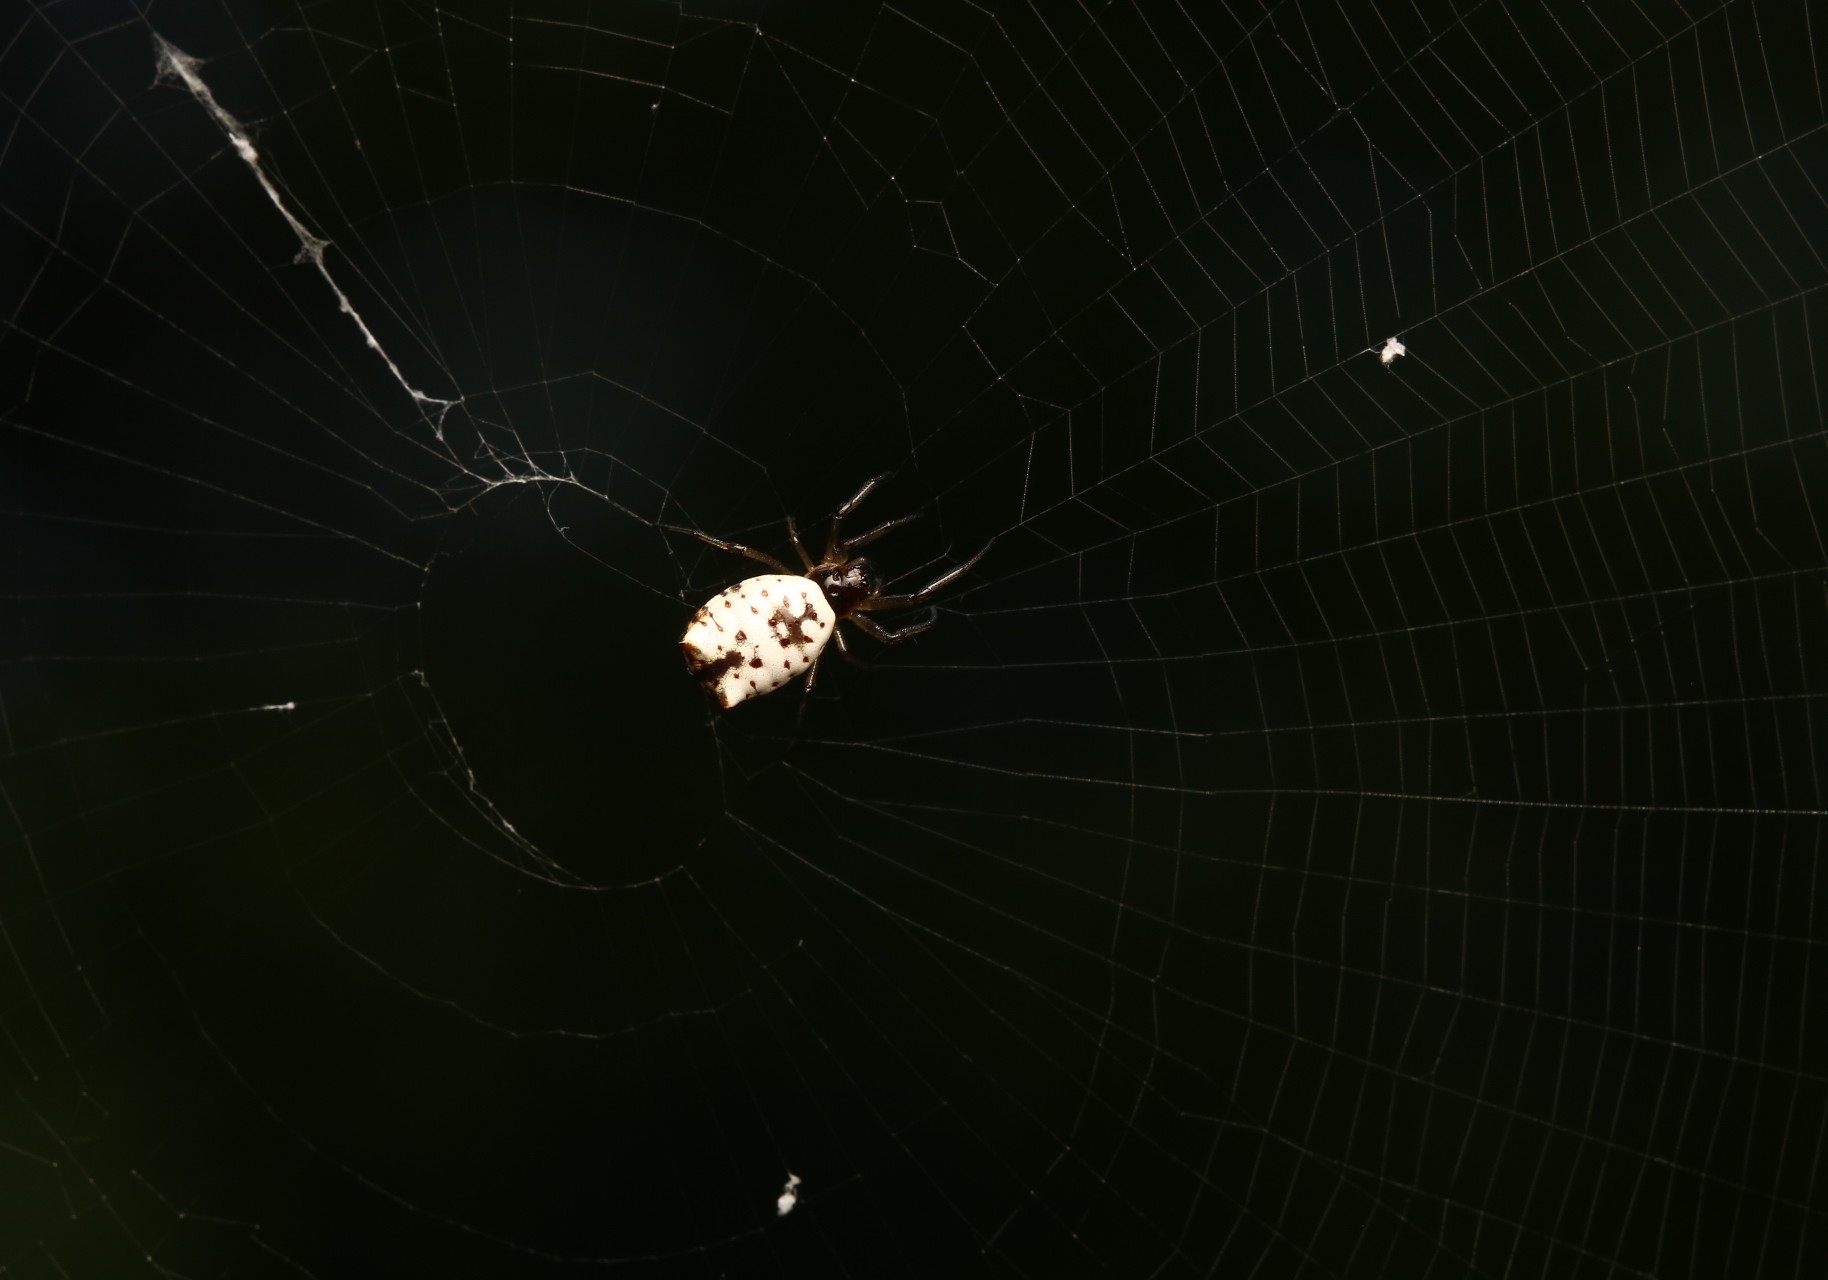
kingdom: Animalia
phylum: Arthropoda
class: Arachnida
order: Araneae
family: Araneidae
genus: Micrathena
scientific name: Micrathena mitrata
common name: Orb weavers
